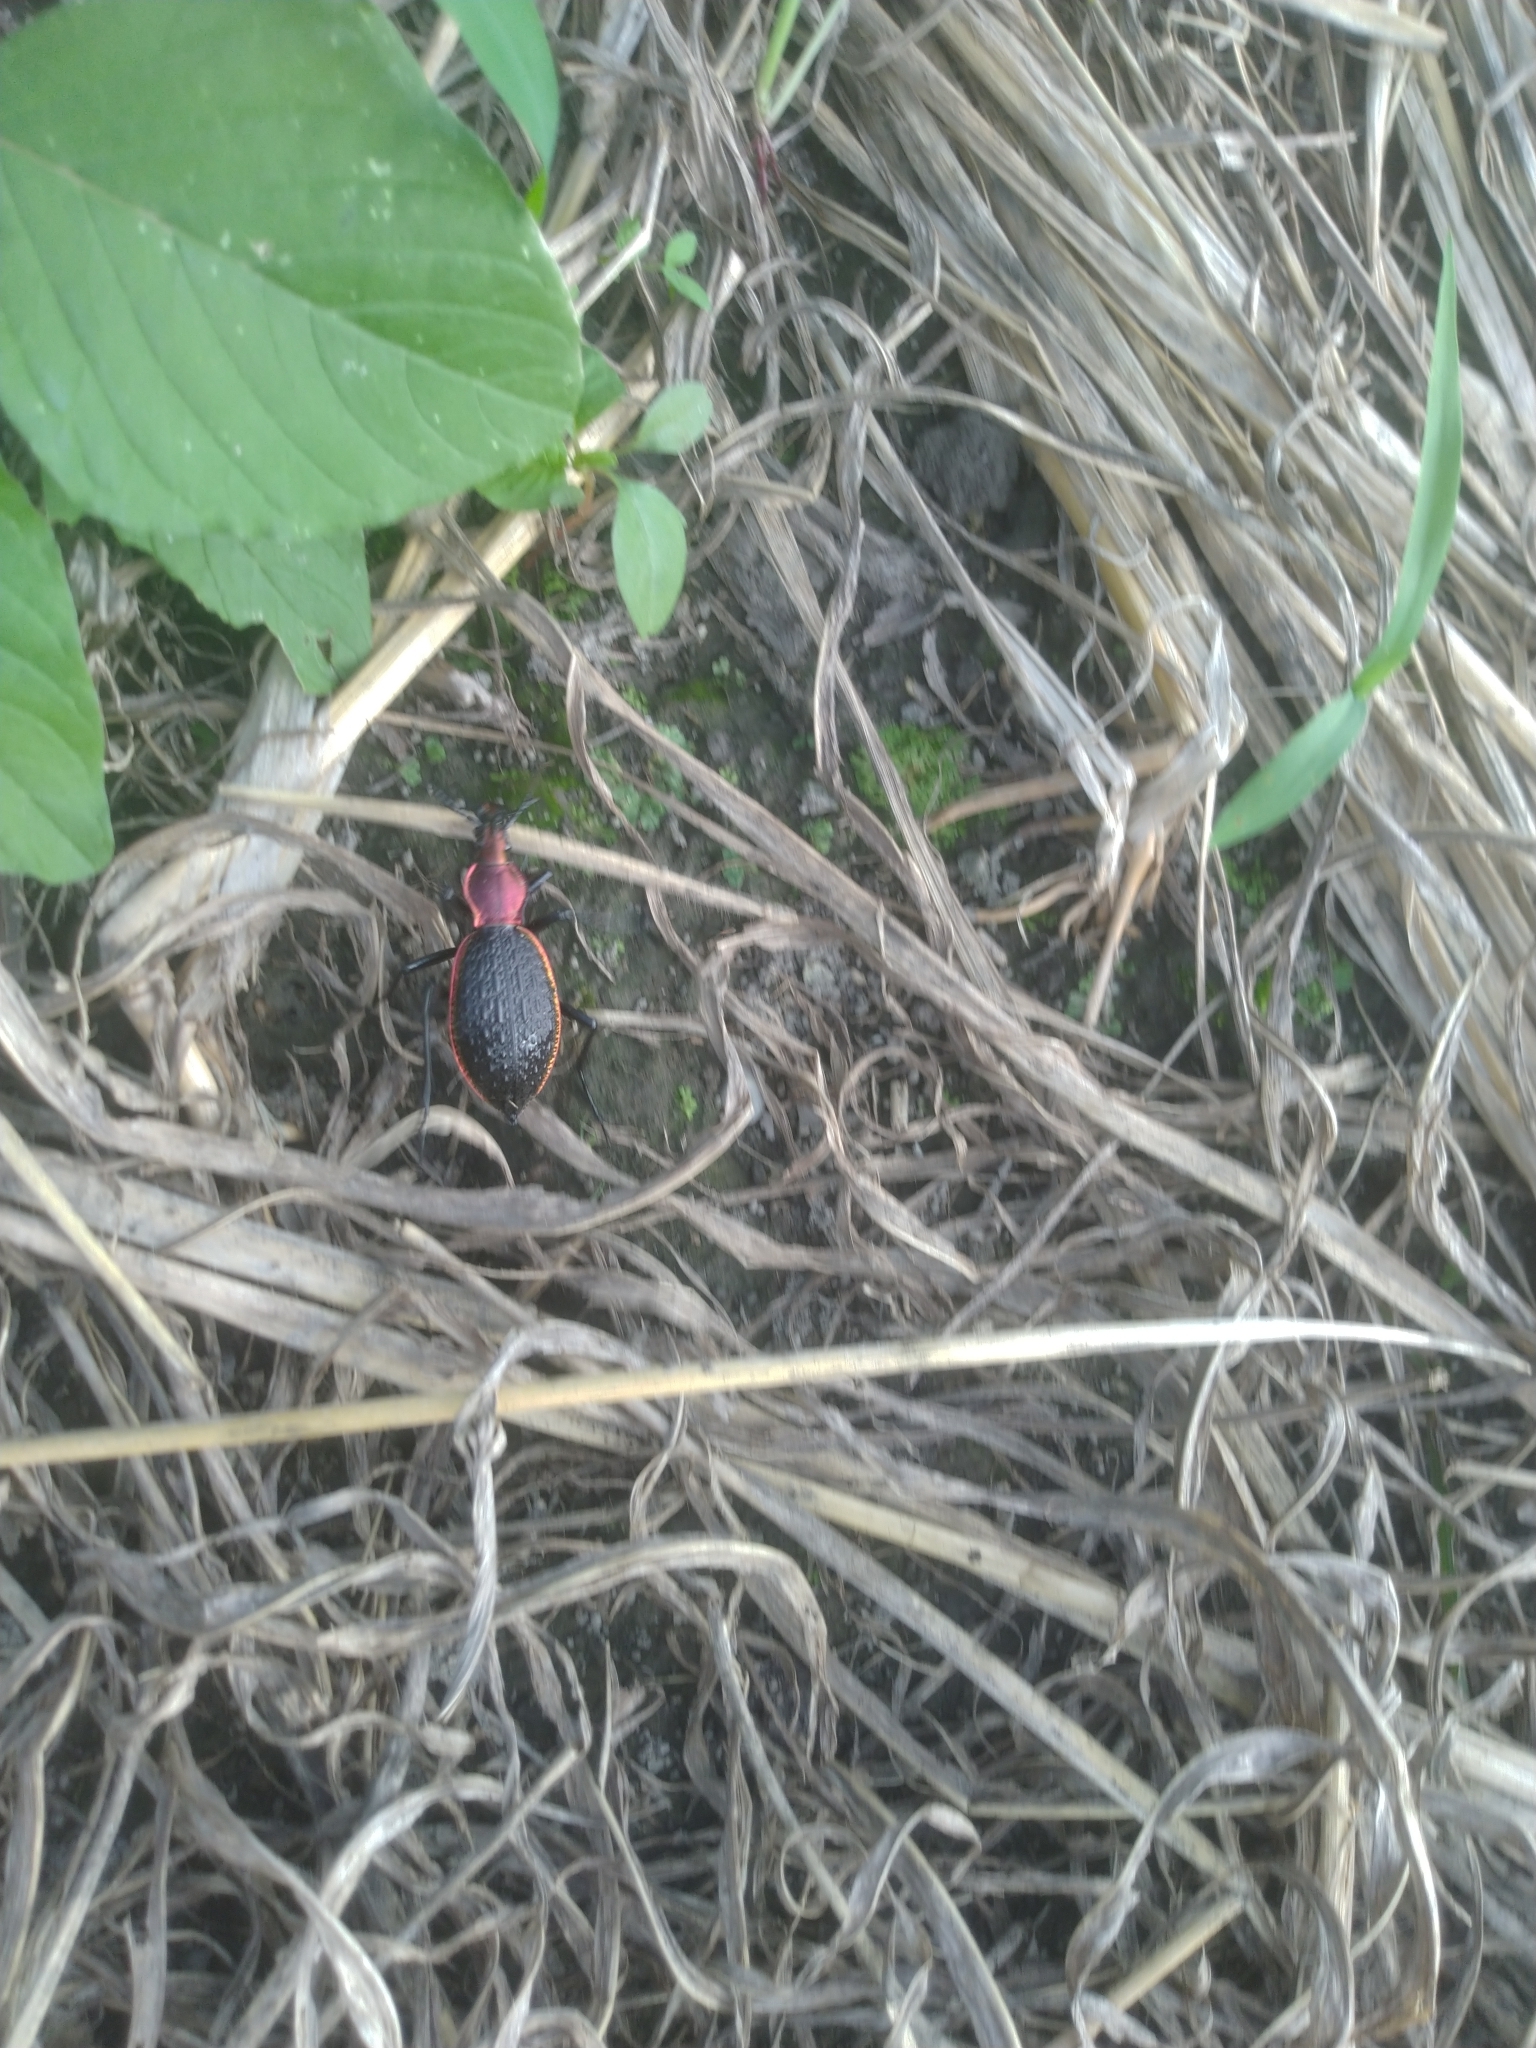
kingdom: Animalia
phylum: Arthropoda
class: Insecta
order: Coleoptera
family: Carabidae
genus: Carabus
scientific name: Carabus nankotaizanus
